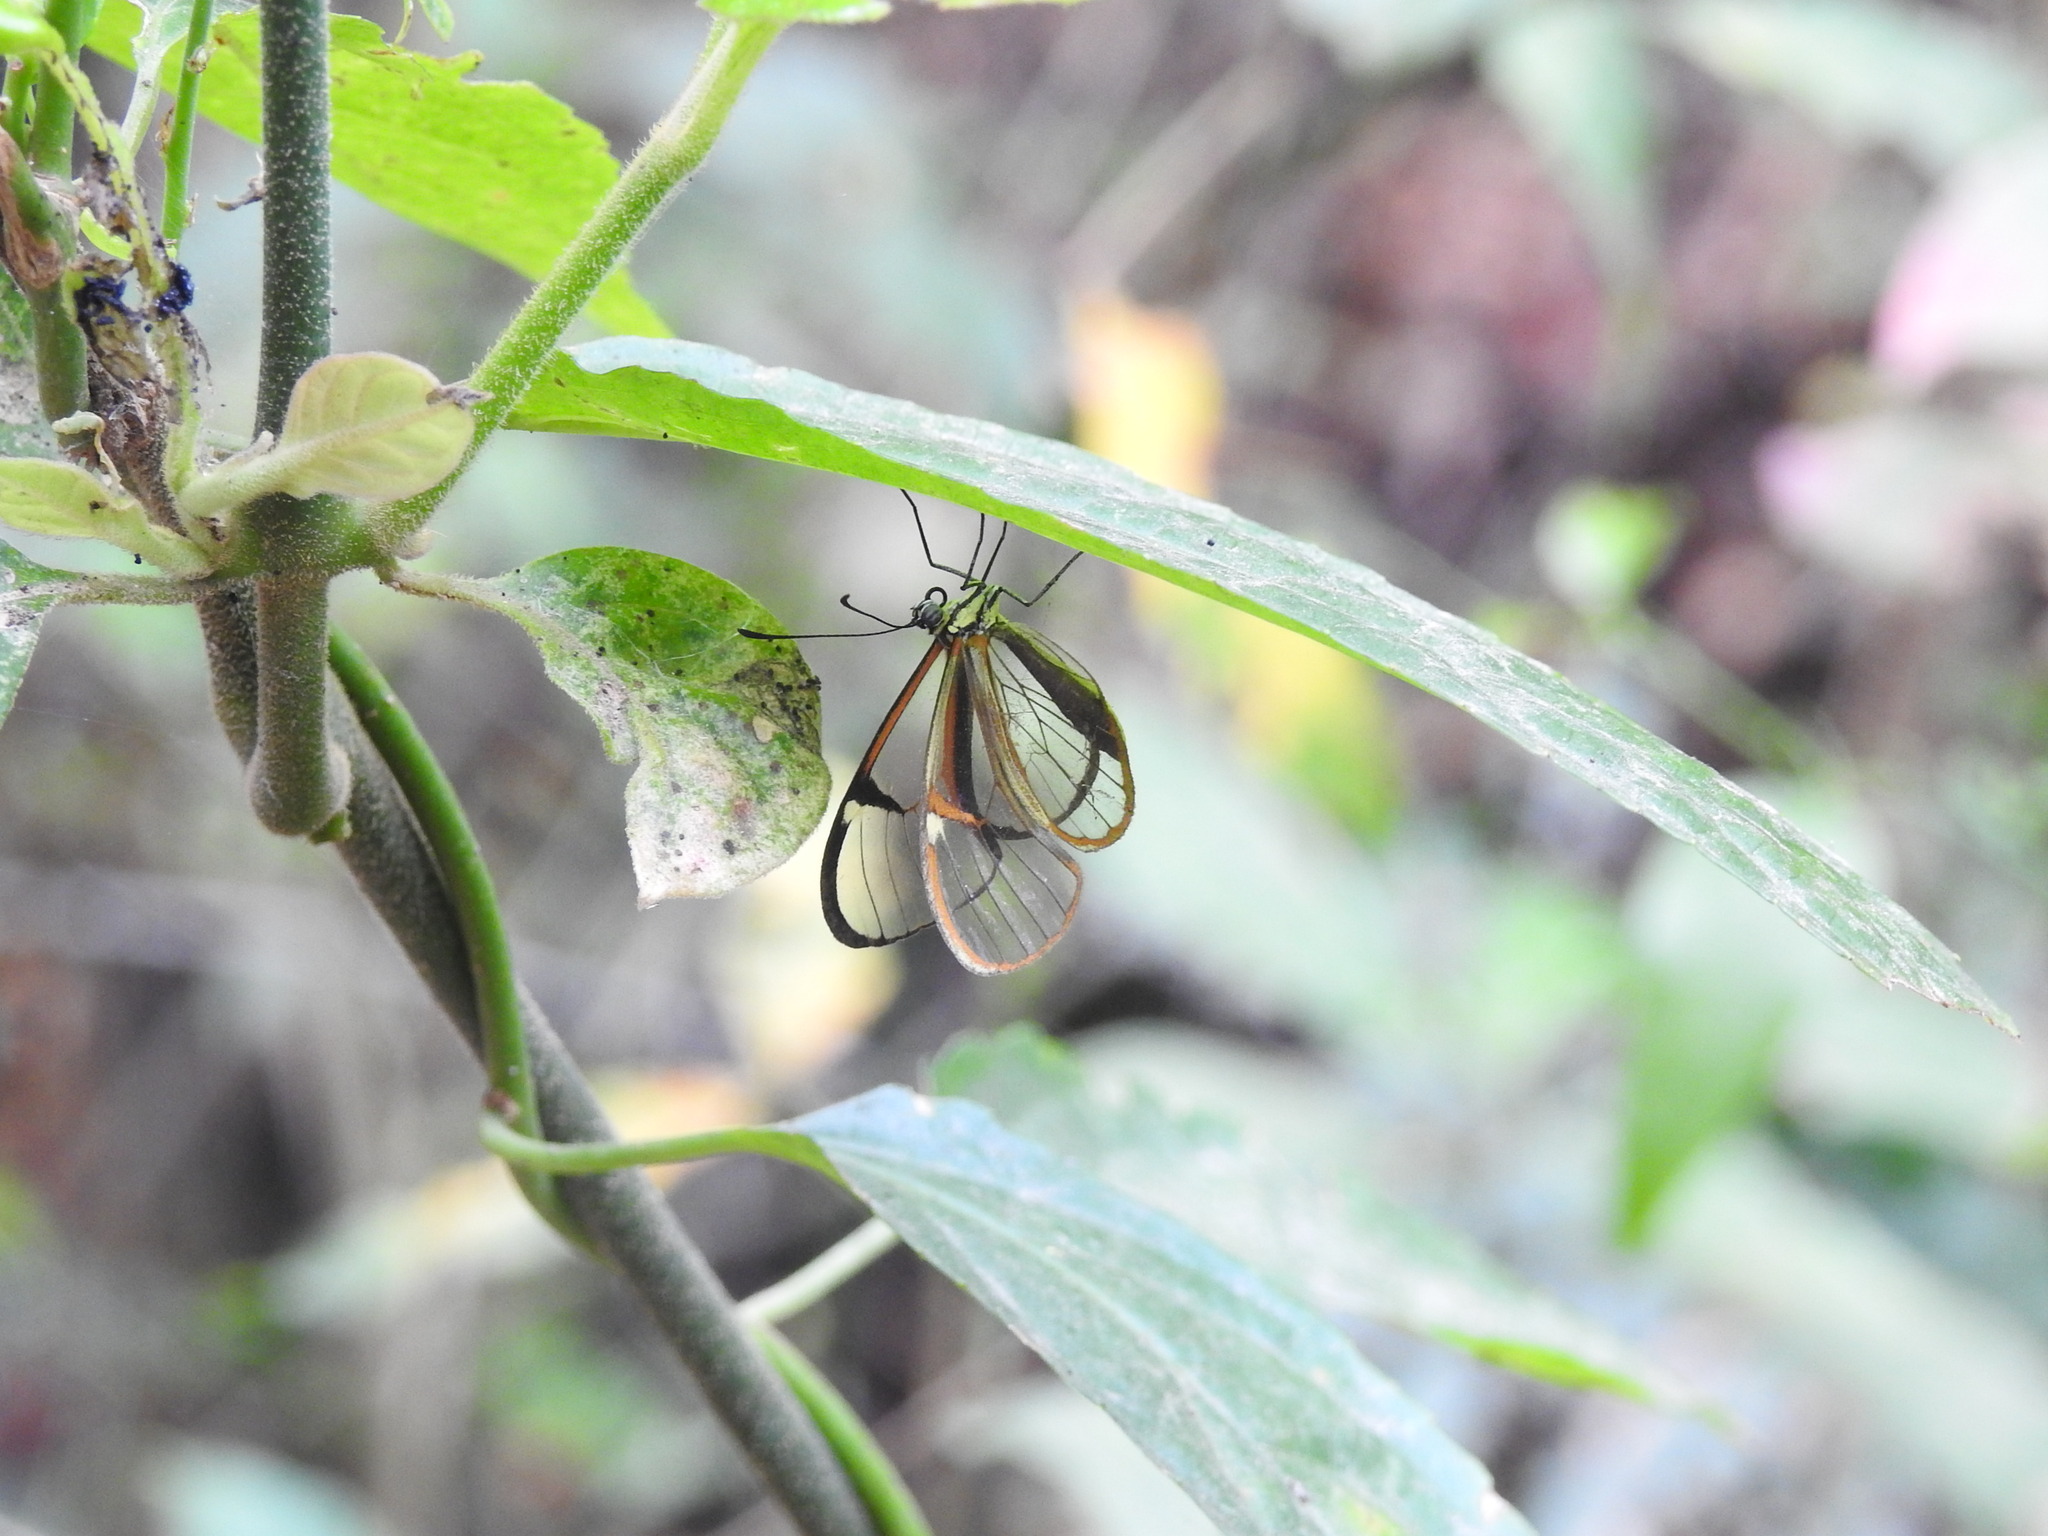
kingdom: Animalia
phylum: Arthropoda
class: Insecta
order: Lepidoptera
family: Nymphalidae
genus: Episcada
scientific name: Episcada hymenaea
